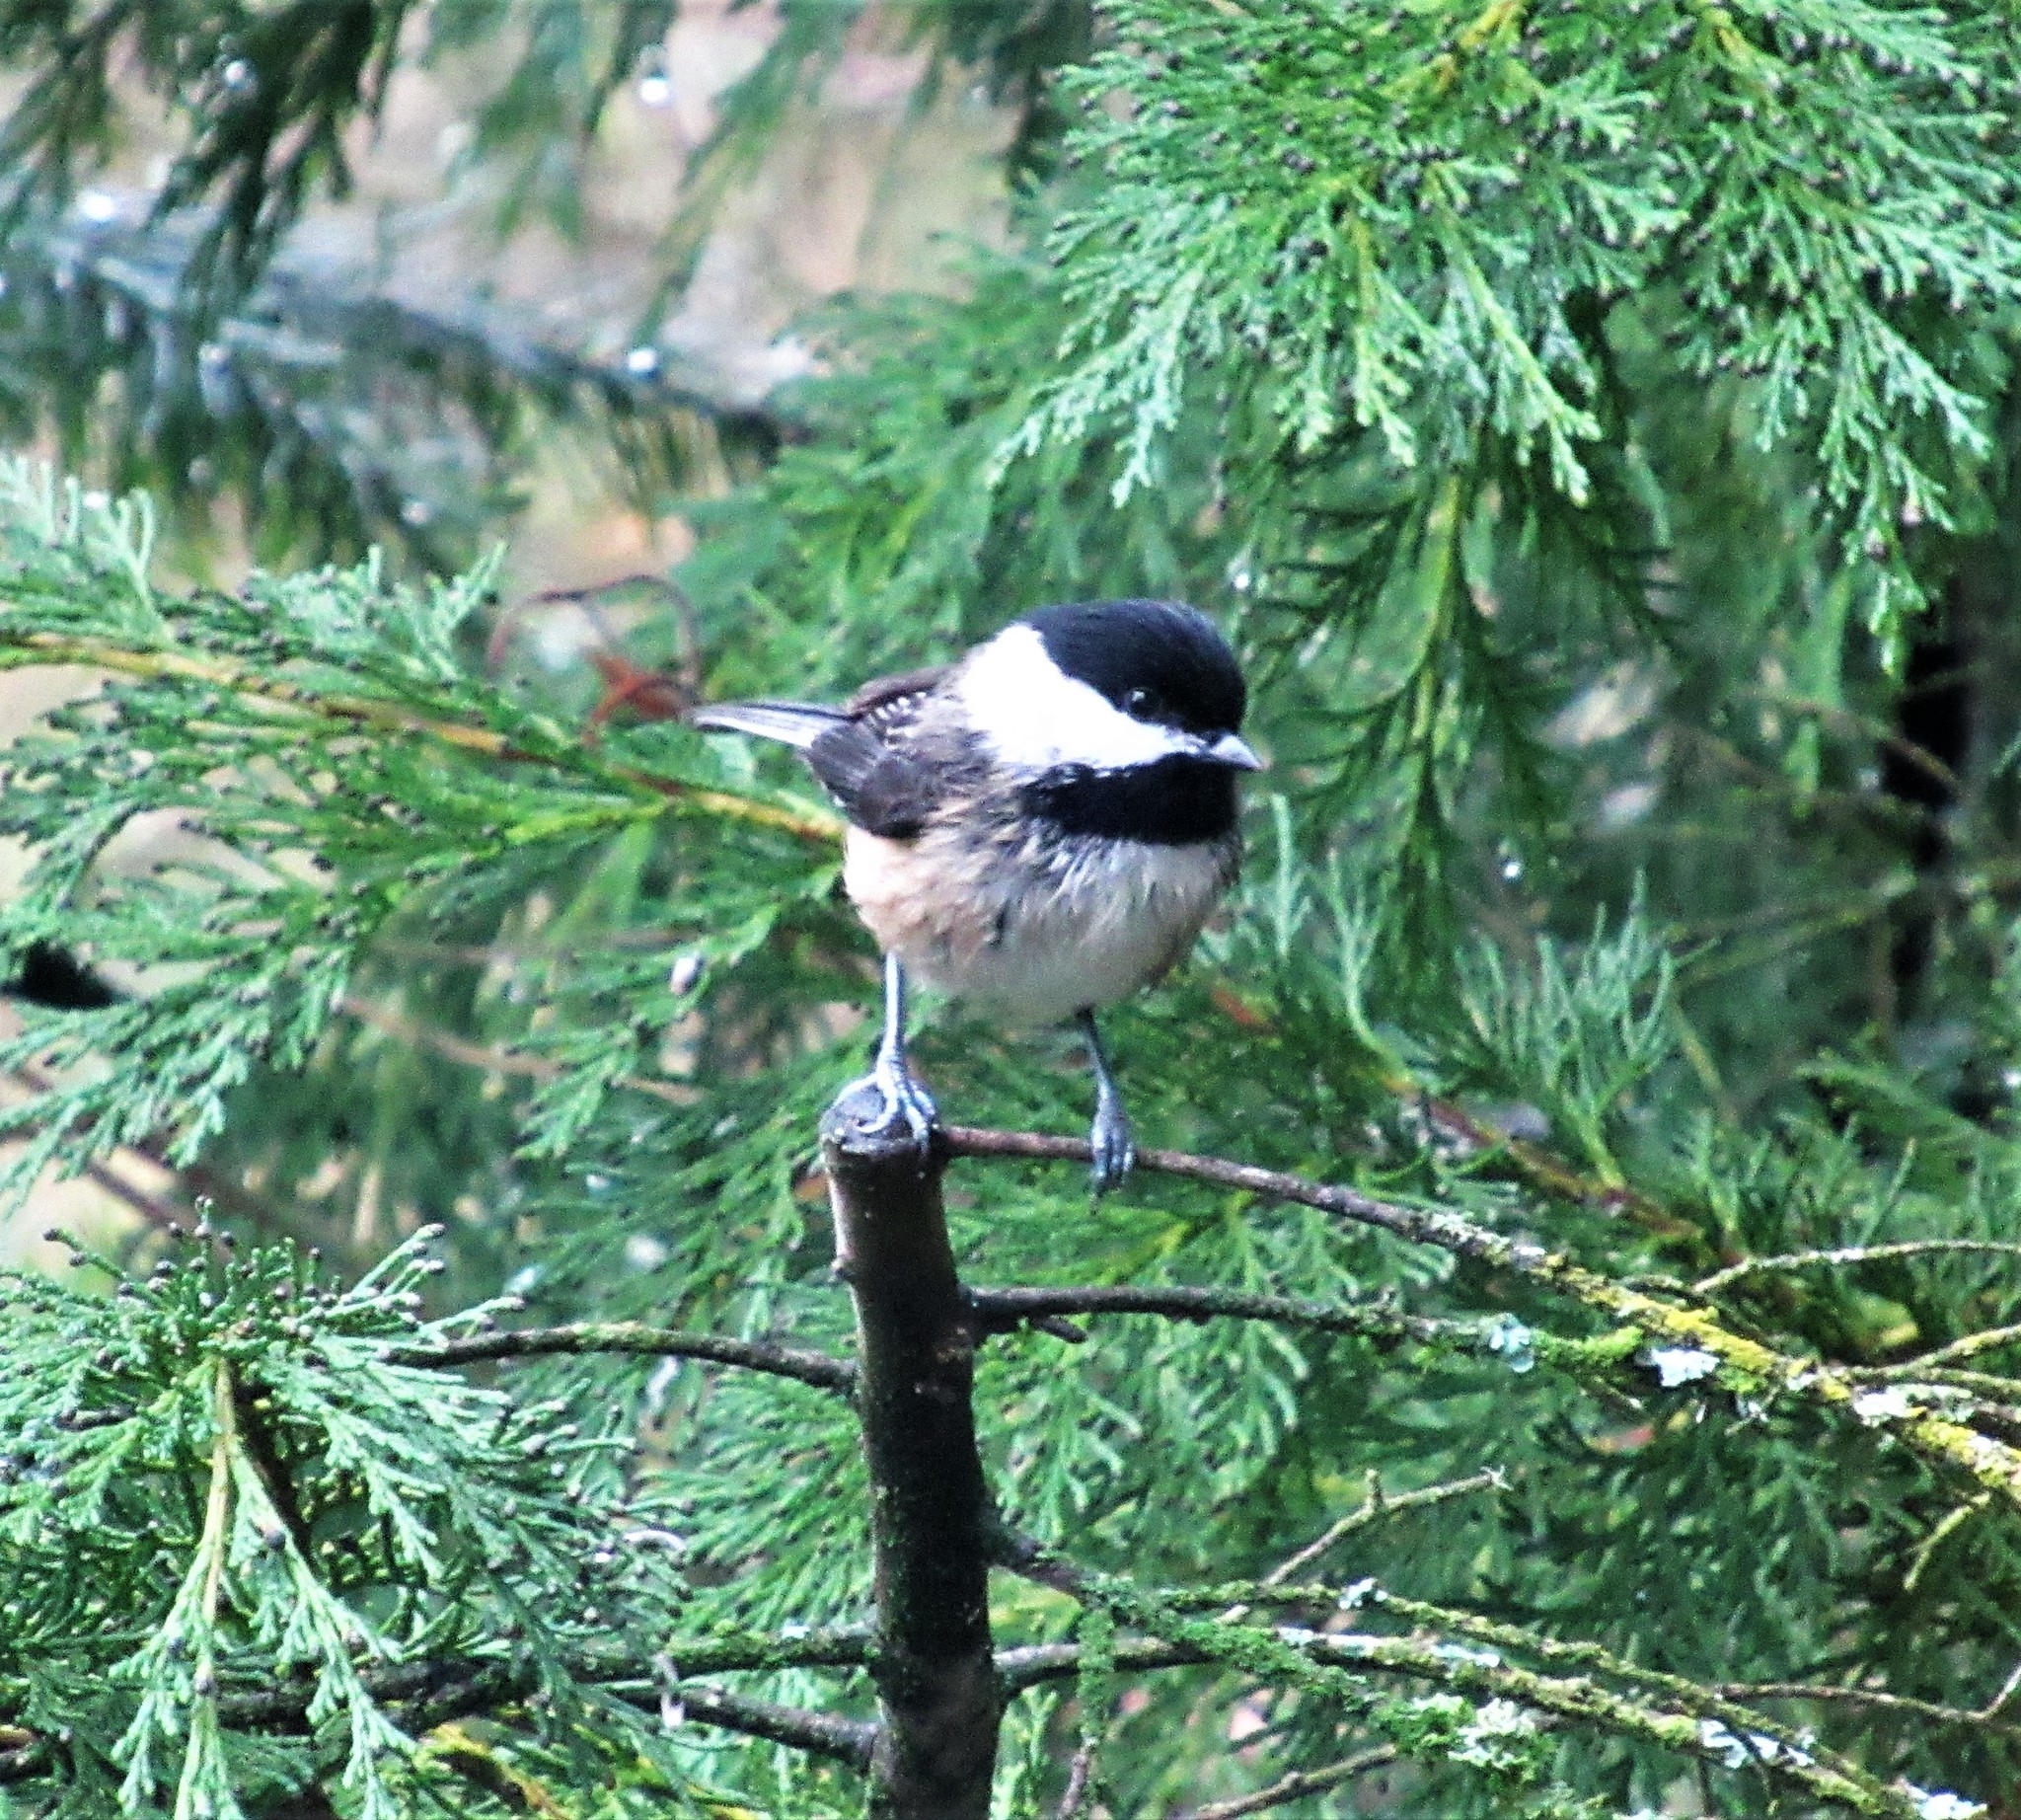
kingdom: Animalia
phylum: Chordata
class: Aves
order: Passeriformes
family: Paridae
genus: Poecile
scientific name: Poecile atricapillus
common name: Black-capped chickadee
